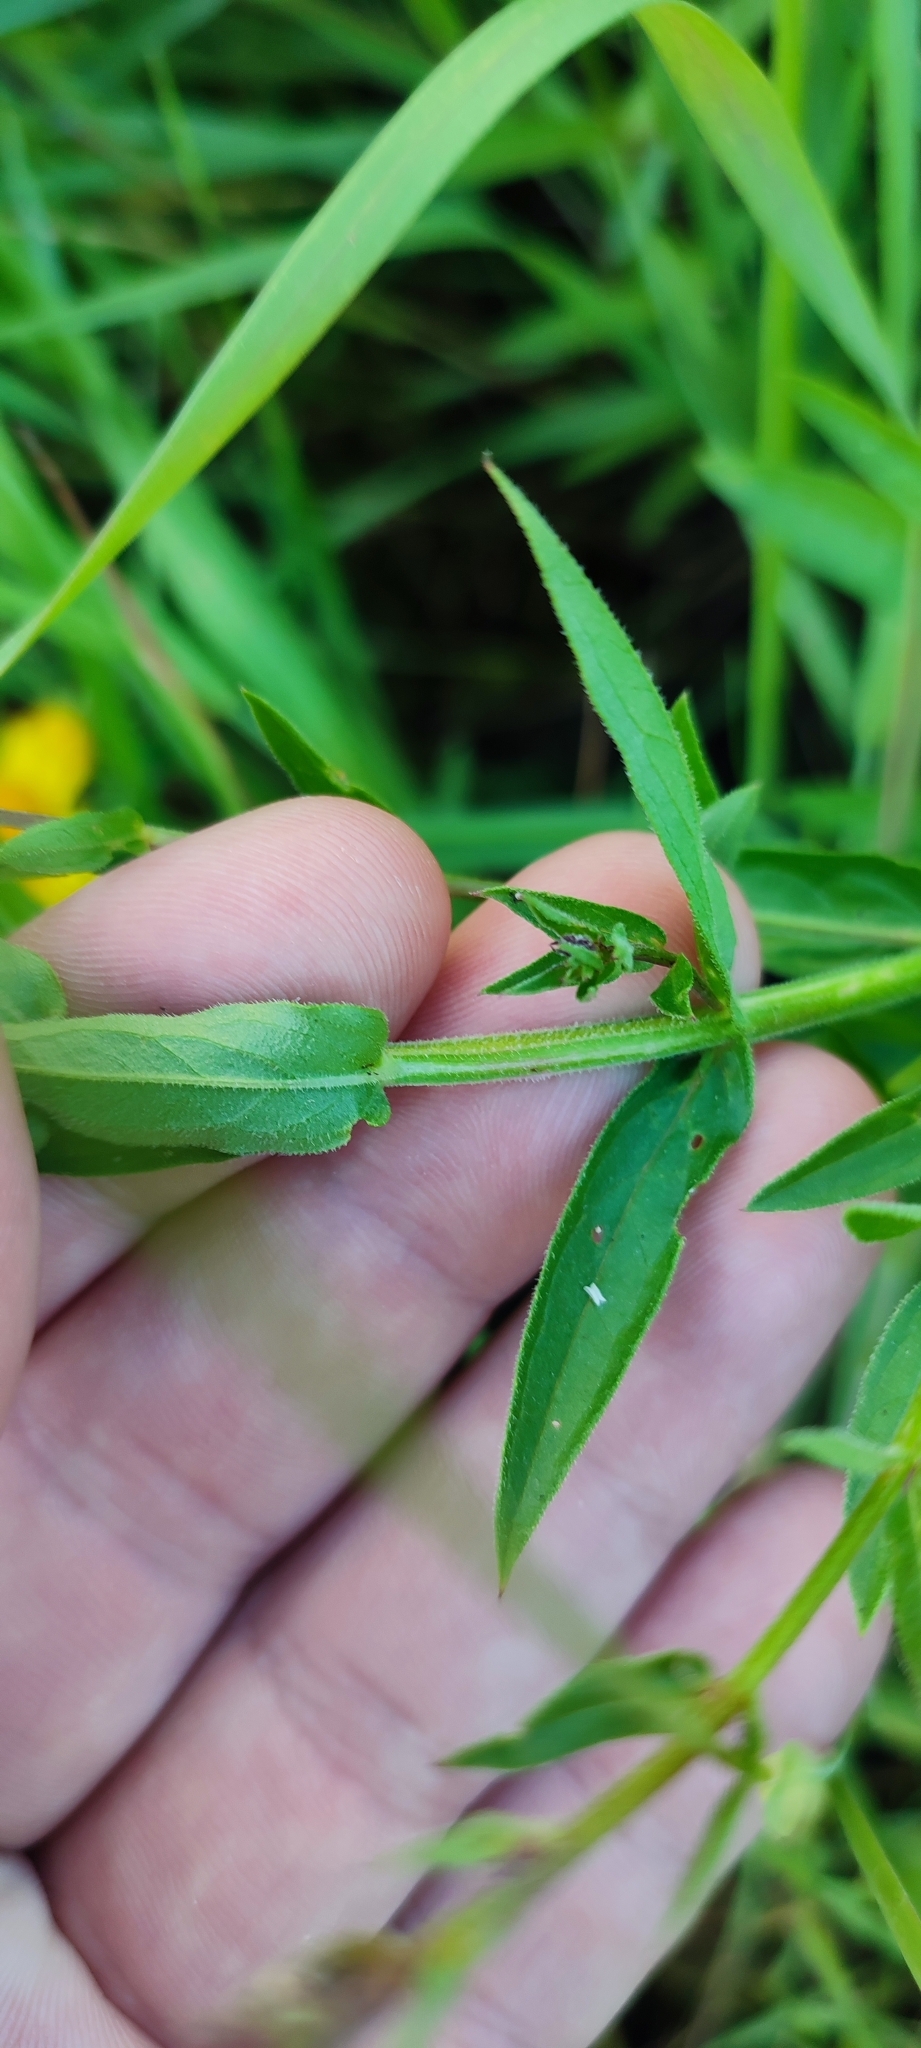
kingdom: Plantae
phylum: Tracheophyta
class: Magnoliopsida
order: Myrtales
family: Lythraceae
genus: Lythrum
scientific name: Lythrum salicaria
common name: Purple loosestrife
